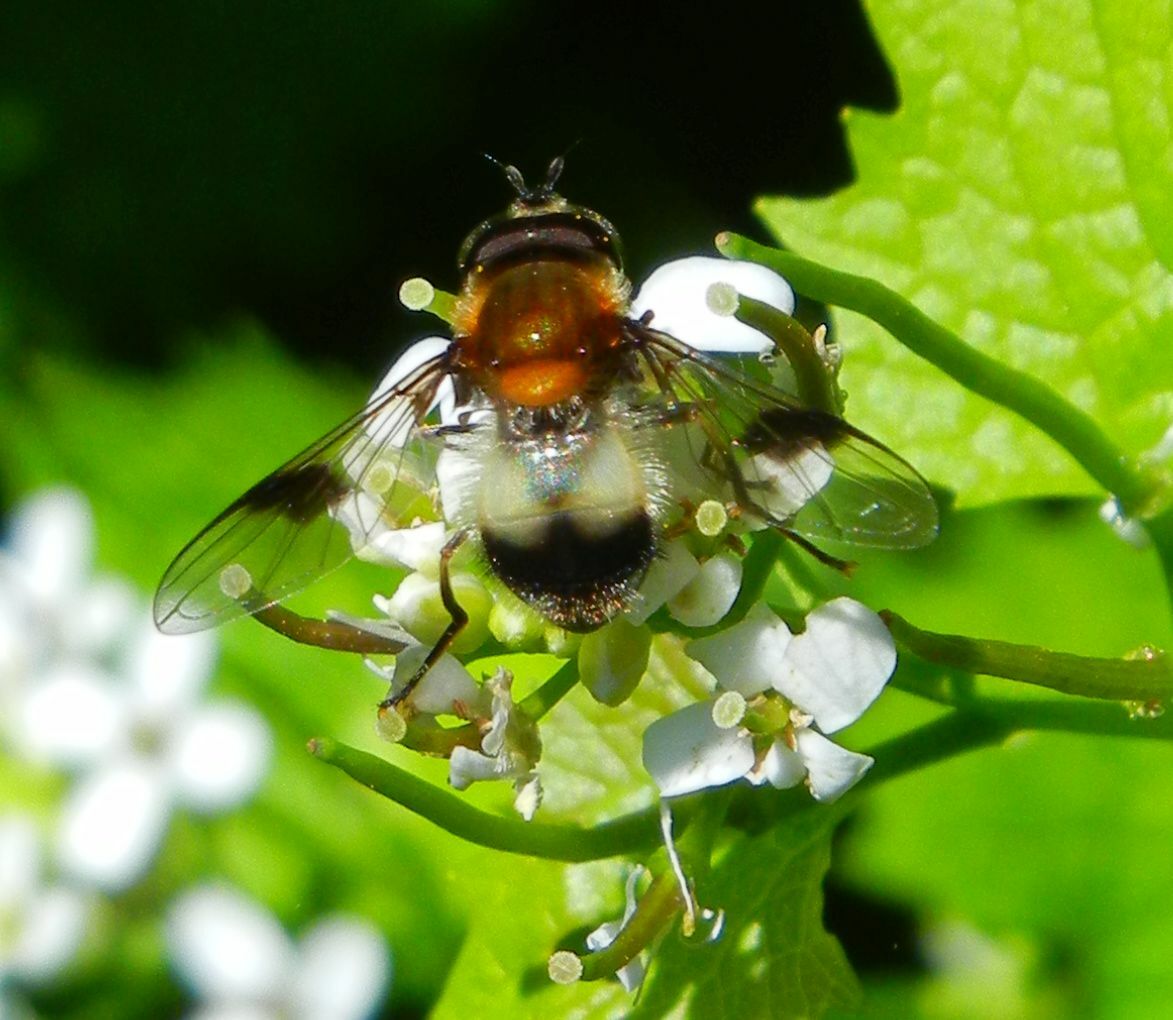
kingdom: Animalia
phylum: Arthropoda
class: Insecta
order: Diptera
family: Syrphidae
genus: Leucozona
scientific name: Leucozona lucorum
